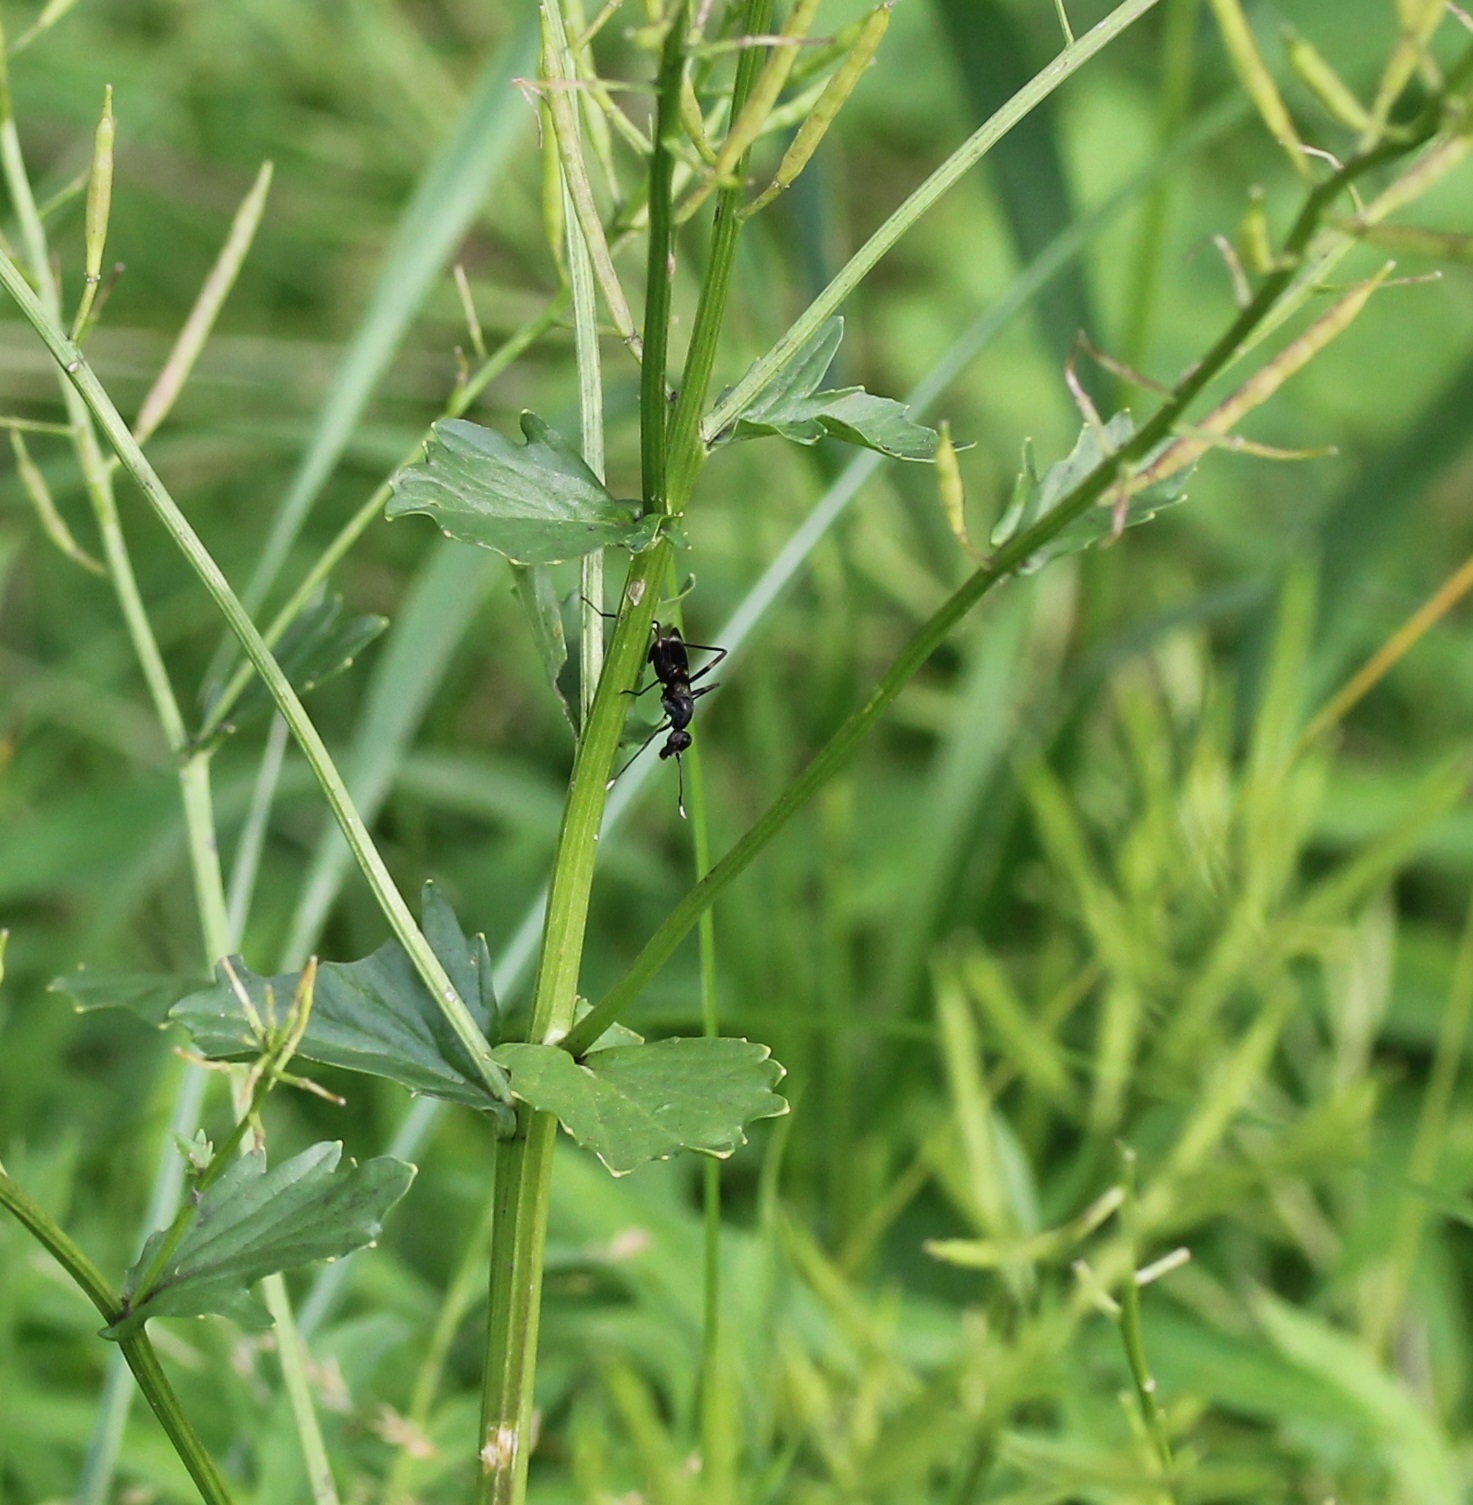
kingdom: Animalia
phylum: Arthropoda
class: Insecta
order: Diptera
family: Micropezidae
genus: Taeniaptera
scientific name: Taeniaptera trivittata
